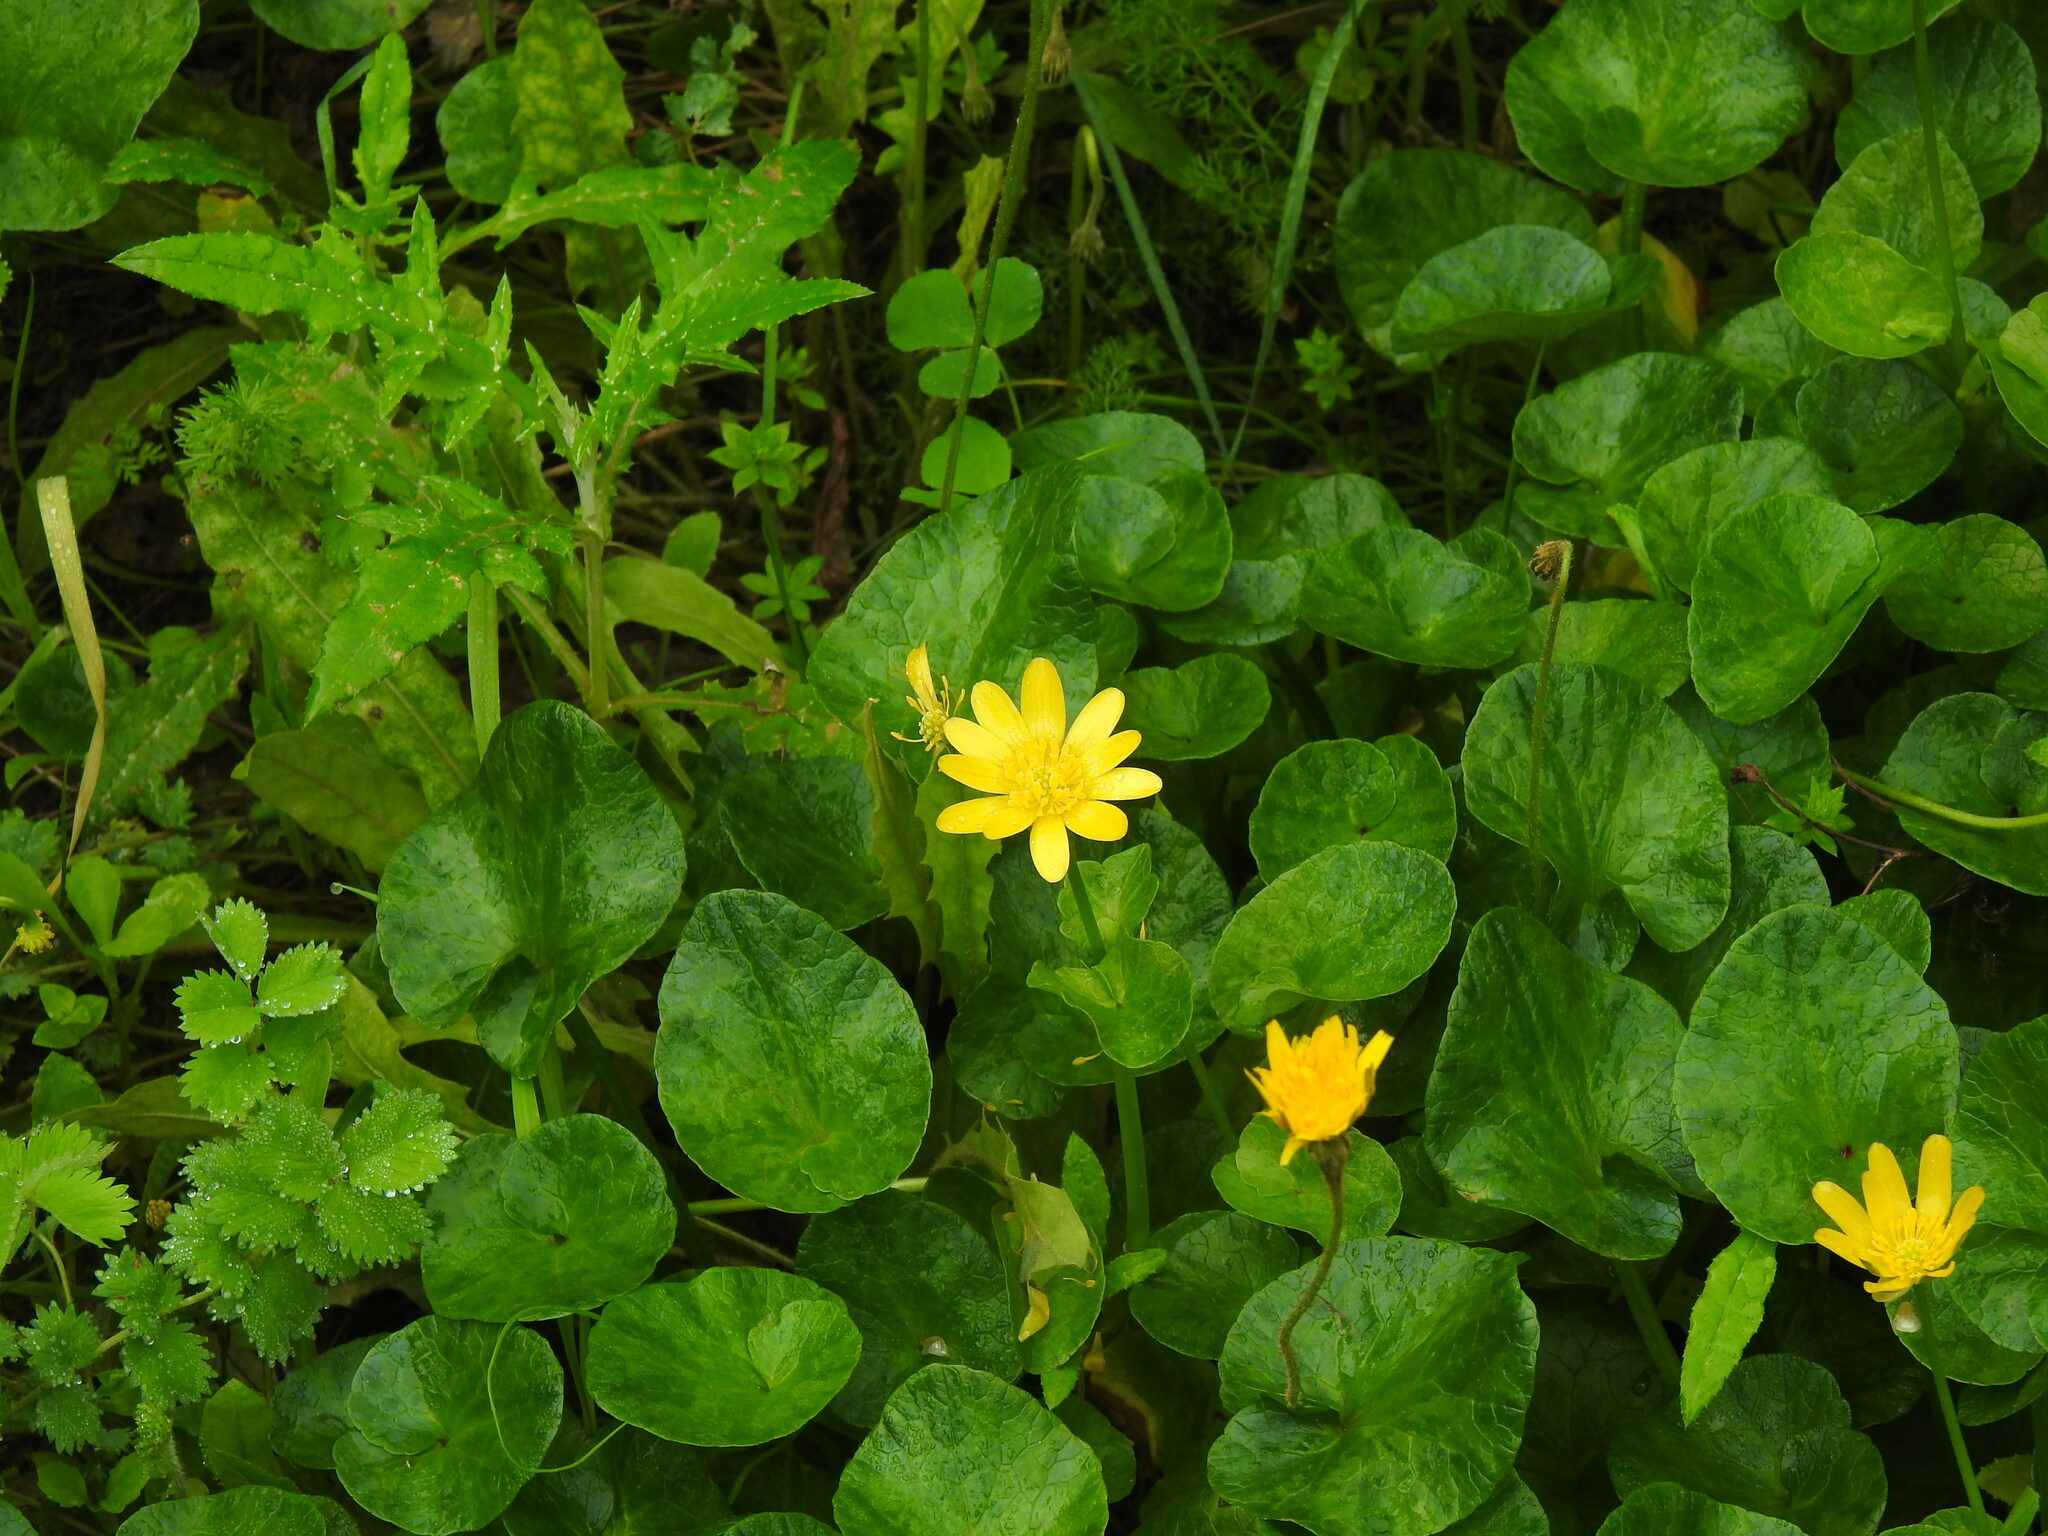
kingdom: Plantae
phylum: Tracheophyta
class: Magnoliopsida
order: Ranunculales
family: Ranunculaceae
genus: Ficaria
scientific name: Ficaria verna
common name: Lesser celandine
